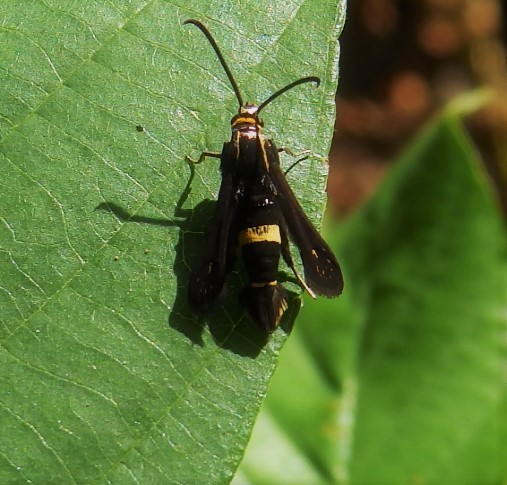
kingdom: Animalia
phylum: Arthropoda
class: Insecta
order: Lepidoptera
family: Sesiidae
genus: Carmenta
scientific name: Carmenta pyralidiformis
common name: Boneset borer moth
